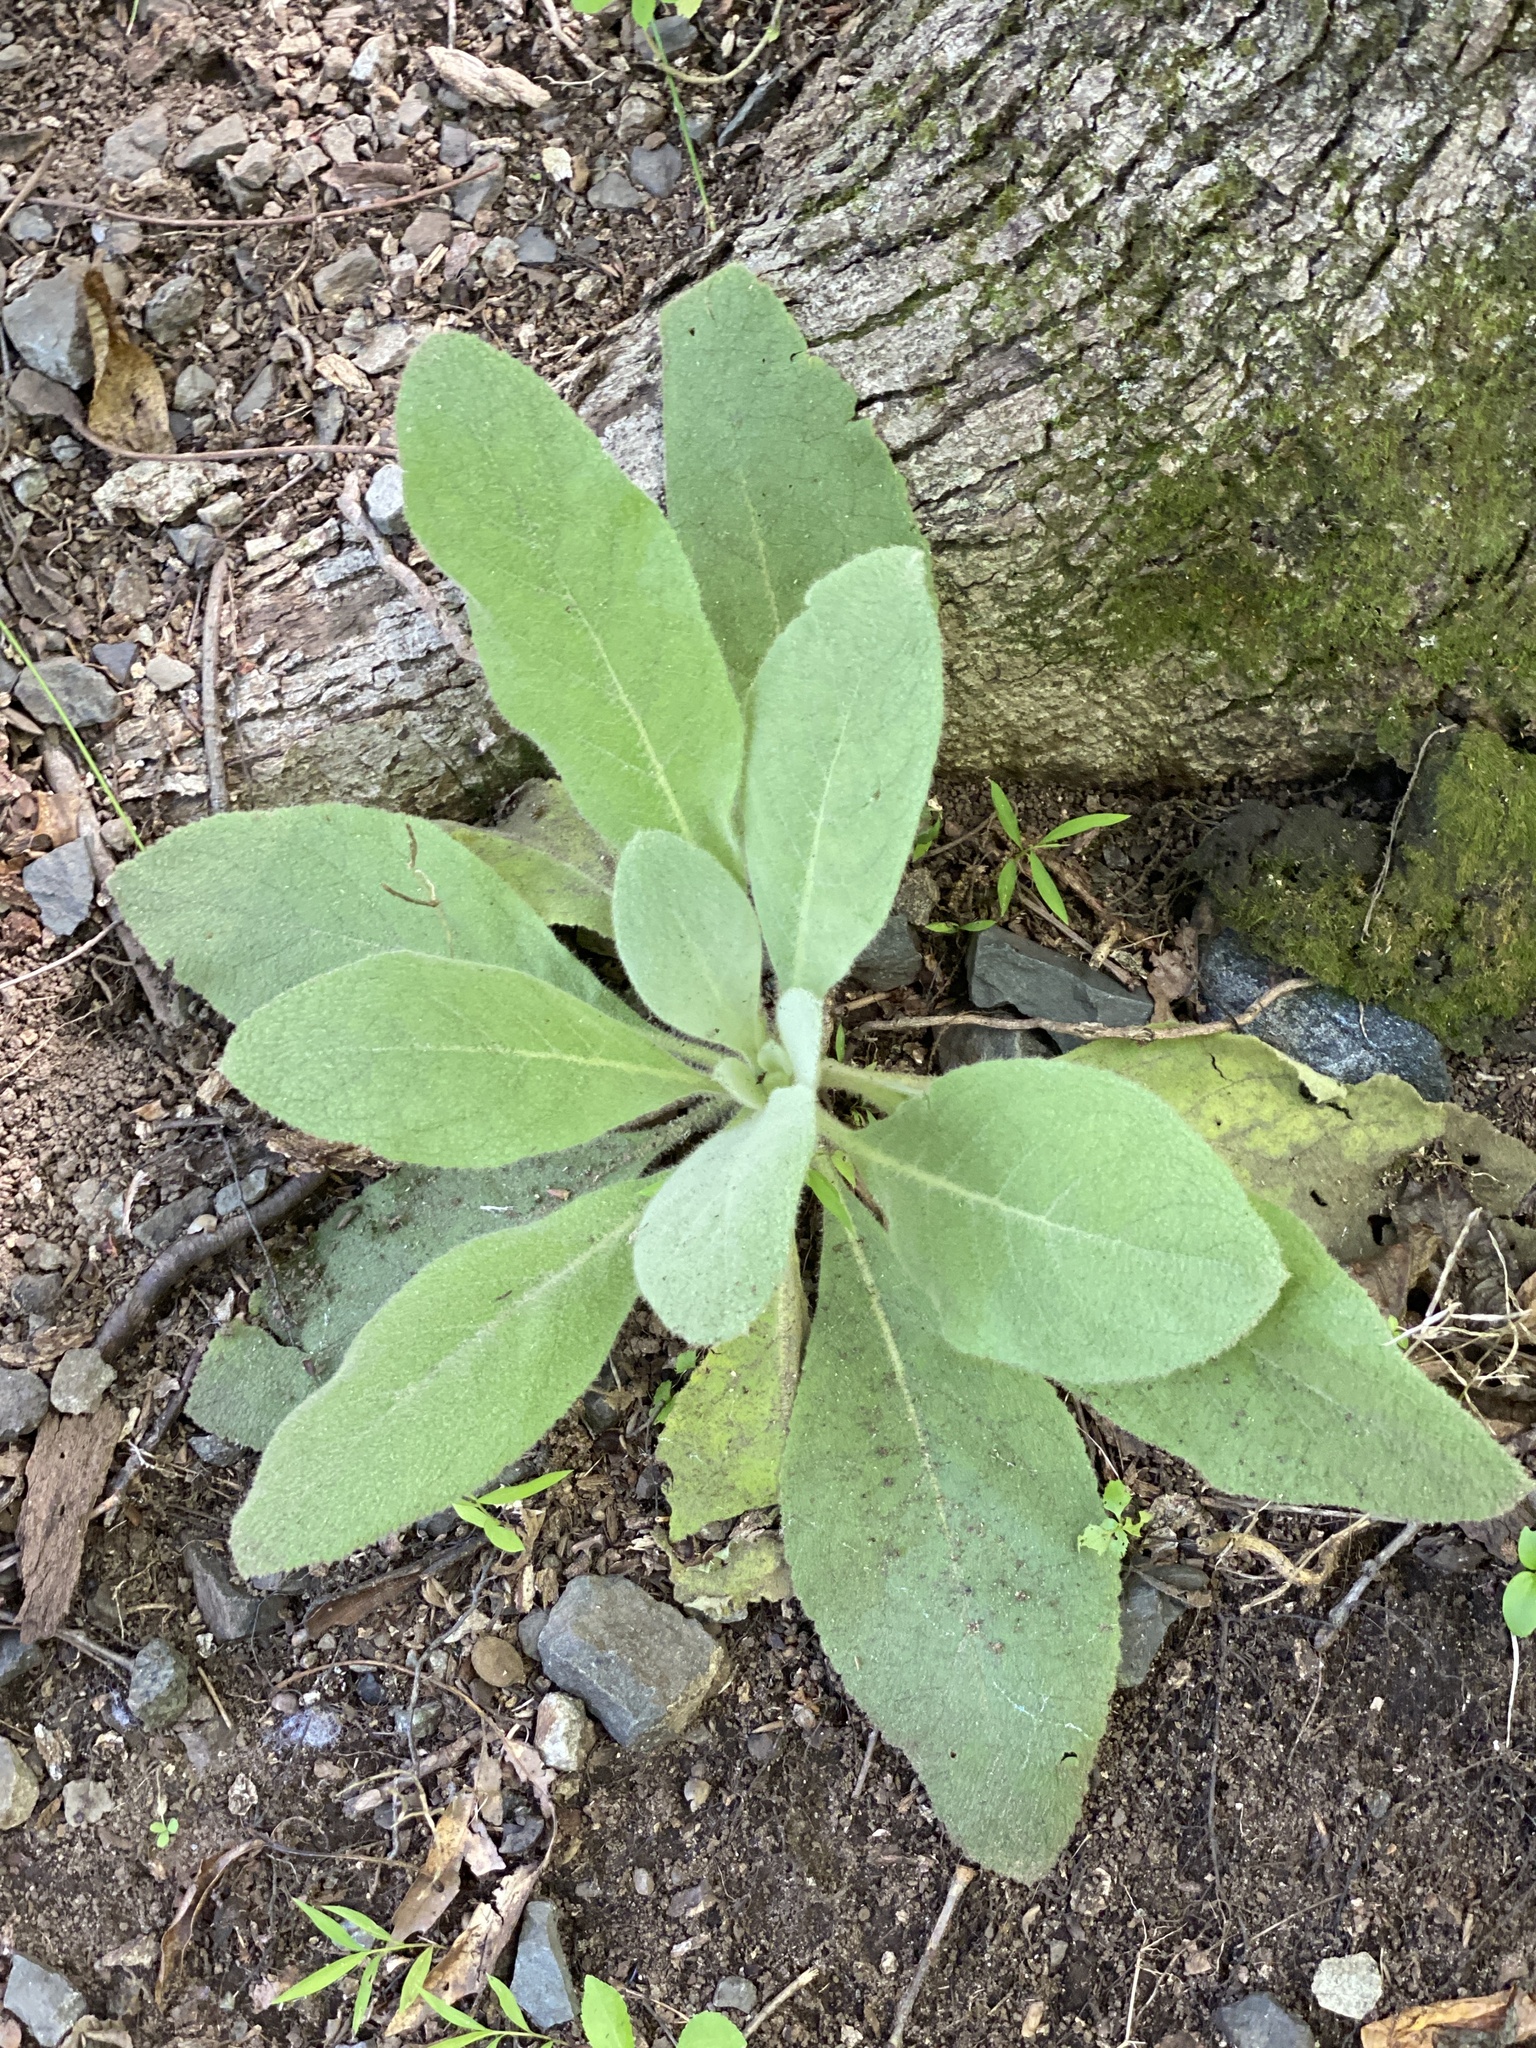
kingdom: Plantae
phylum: Tracheophyta
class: Magnoliopsida
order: Lamiales
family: Scrophulariaceae
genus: Verbascum
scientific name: Verbascum thapsus
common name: Common mullein
